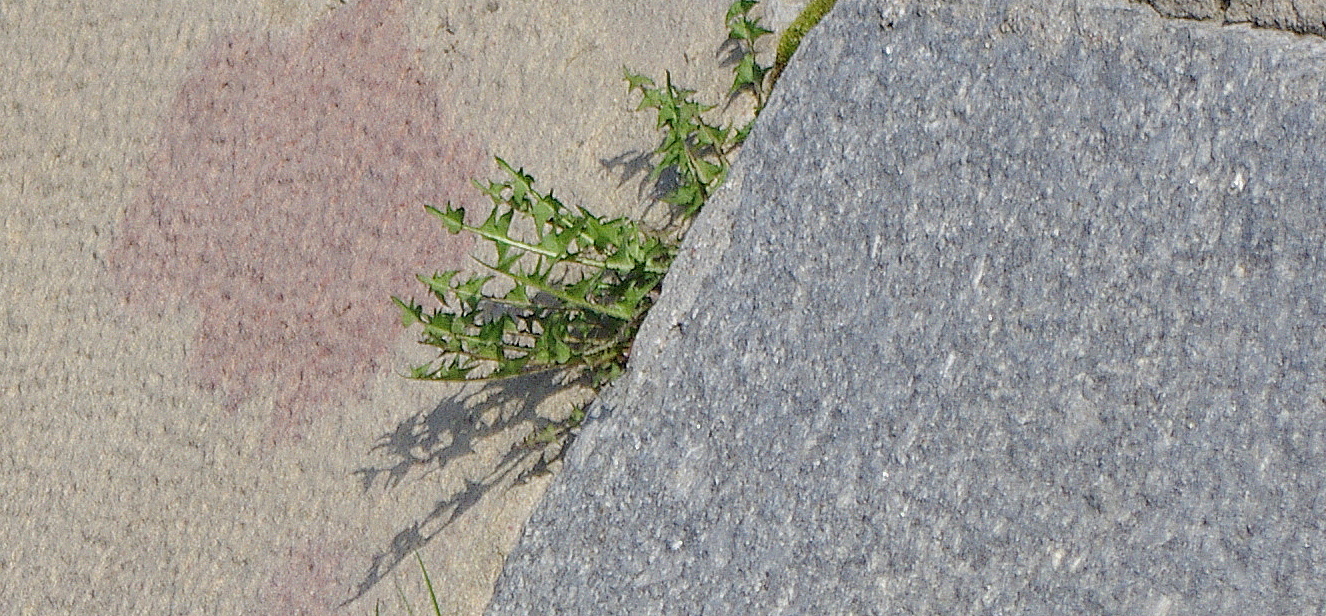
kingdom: Plantae
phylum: Tracheophyta
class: Magnoliopsida
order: Asterales
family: Asteraceae
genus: Taraxacum
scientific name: Taraxacum officinale
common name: Common dandelion
